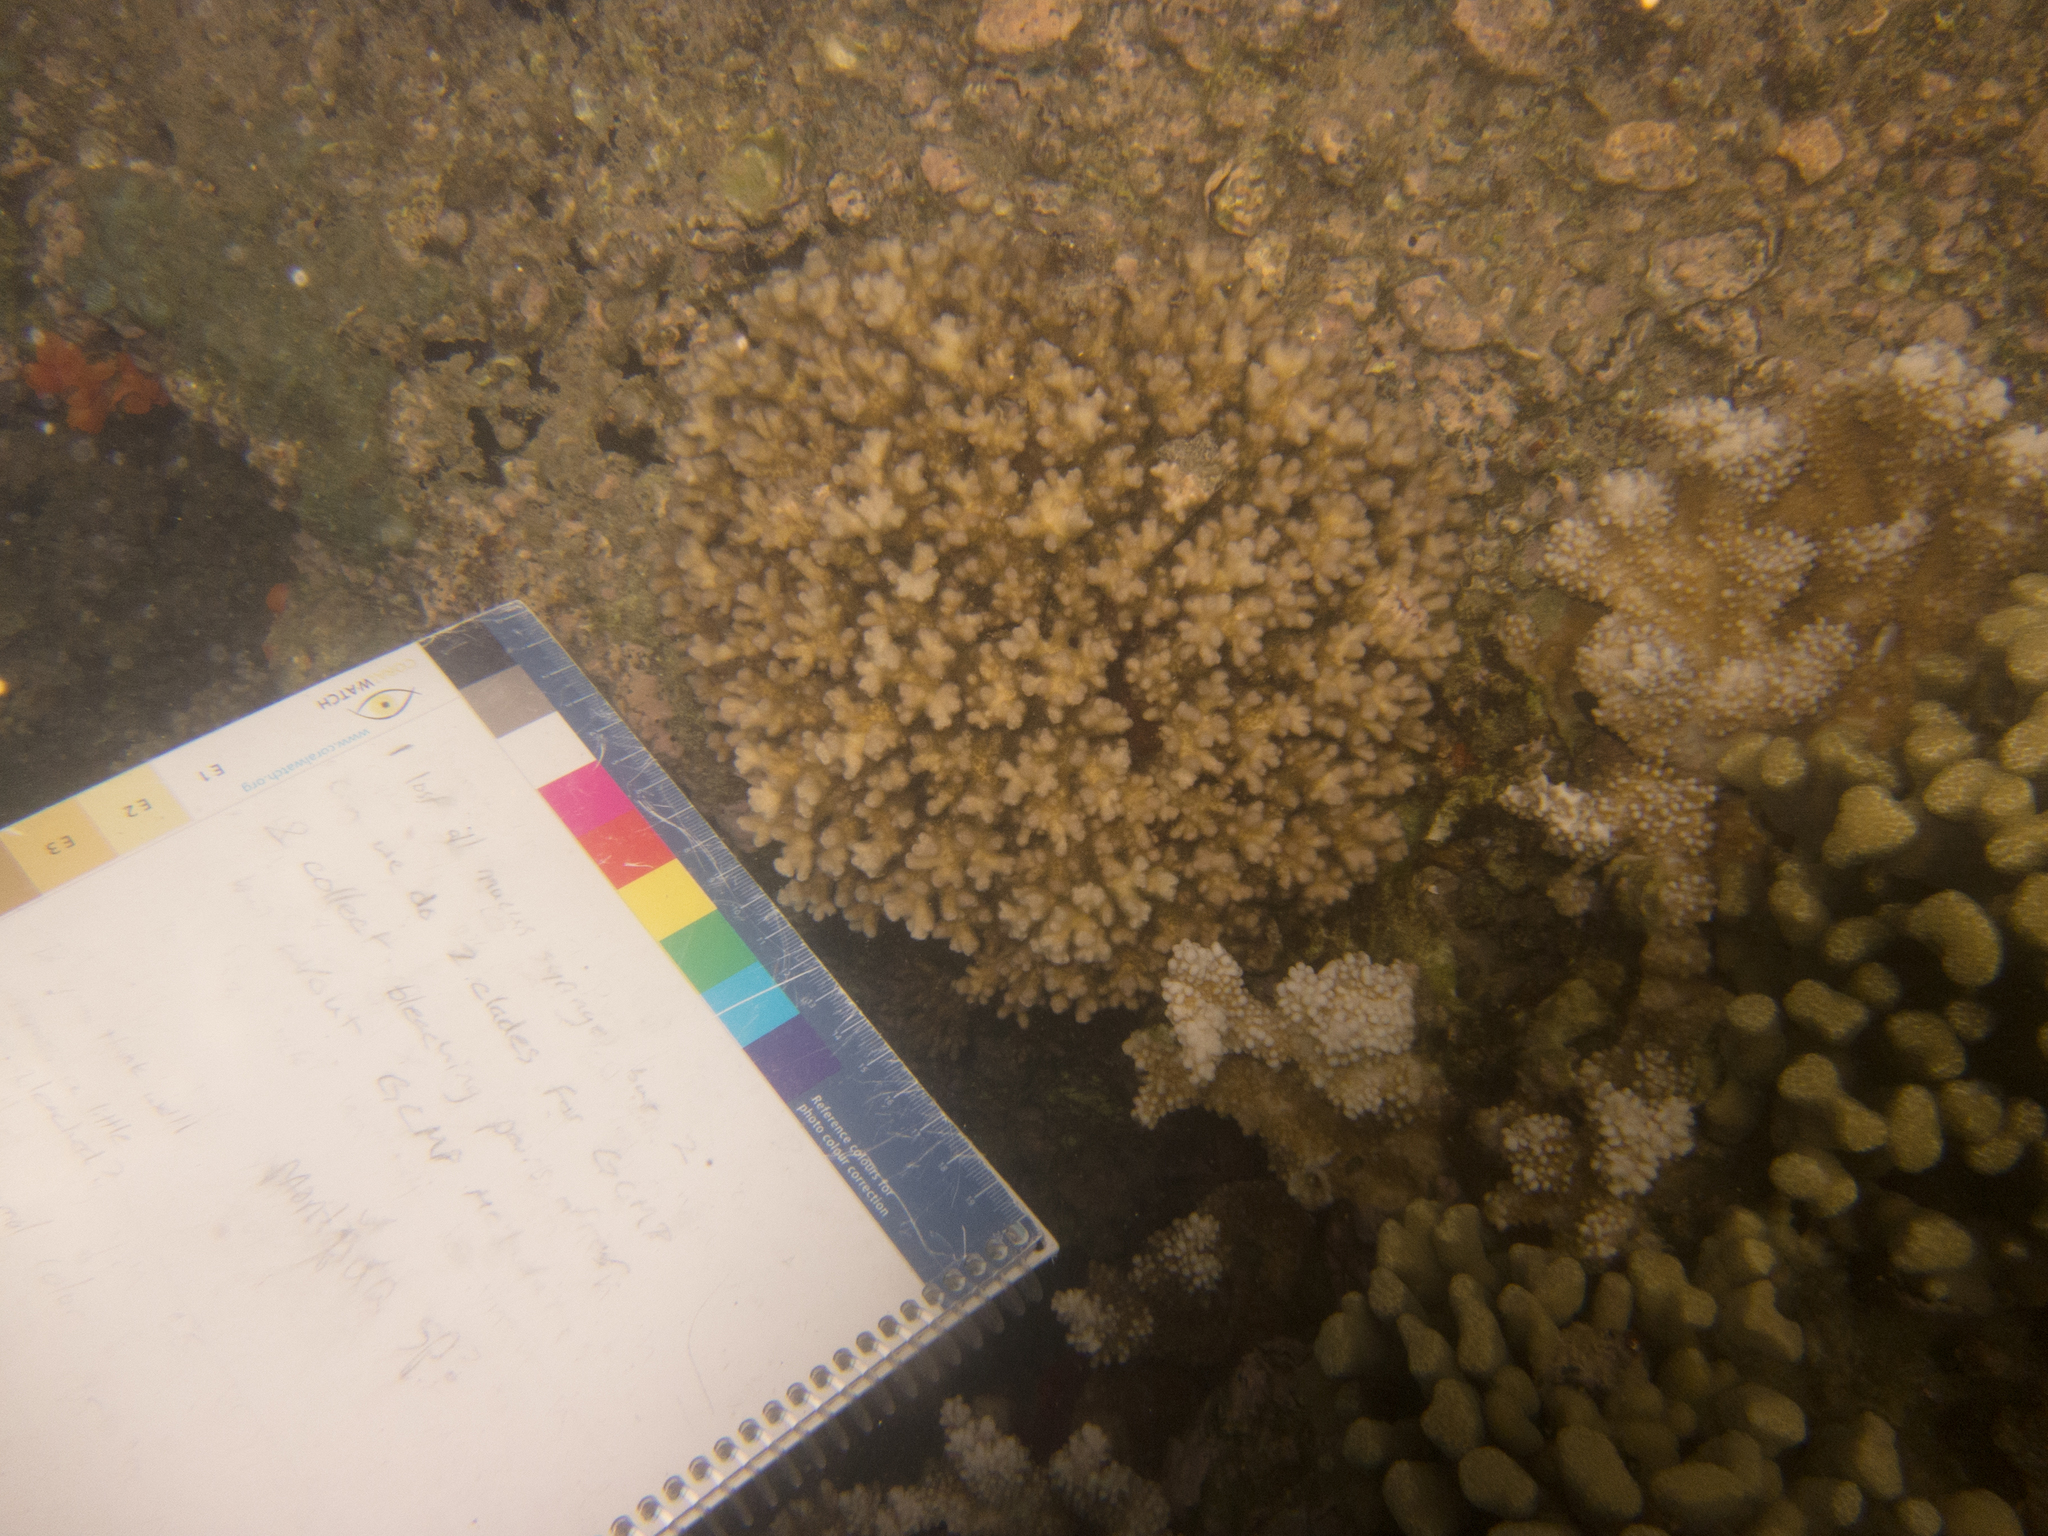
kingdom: Animalia
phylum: Cnidaria
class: Anthozoa
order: Scleractinia
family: Acroporidae
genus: Montipora
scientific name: Montipora capitata
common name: Pore coral
